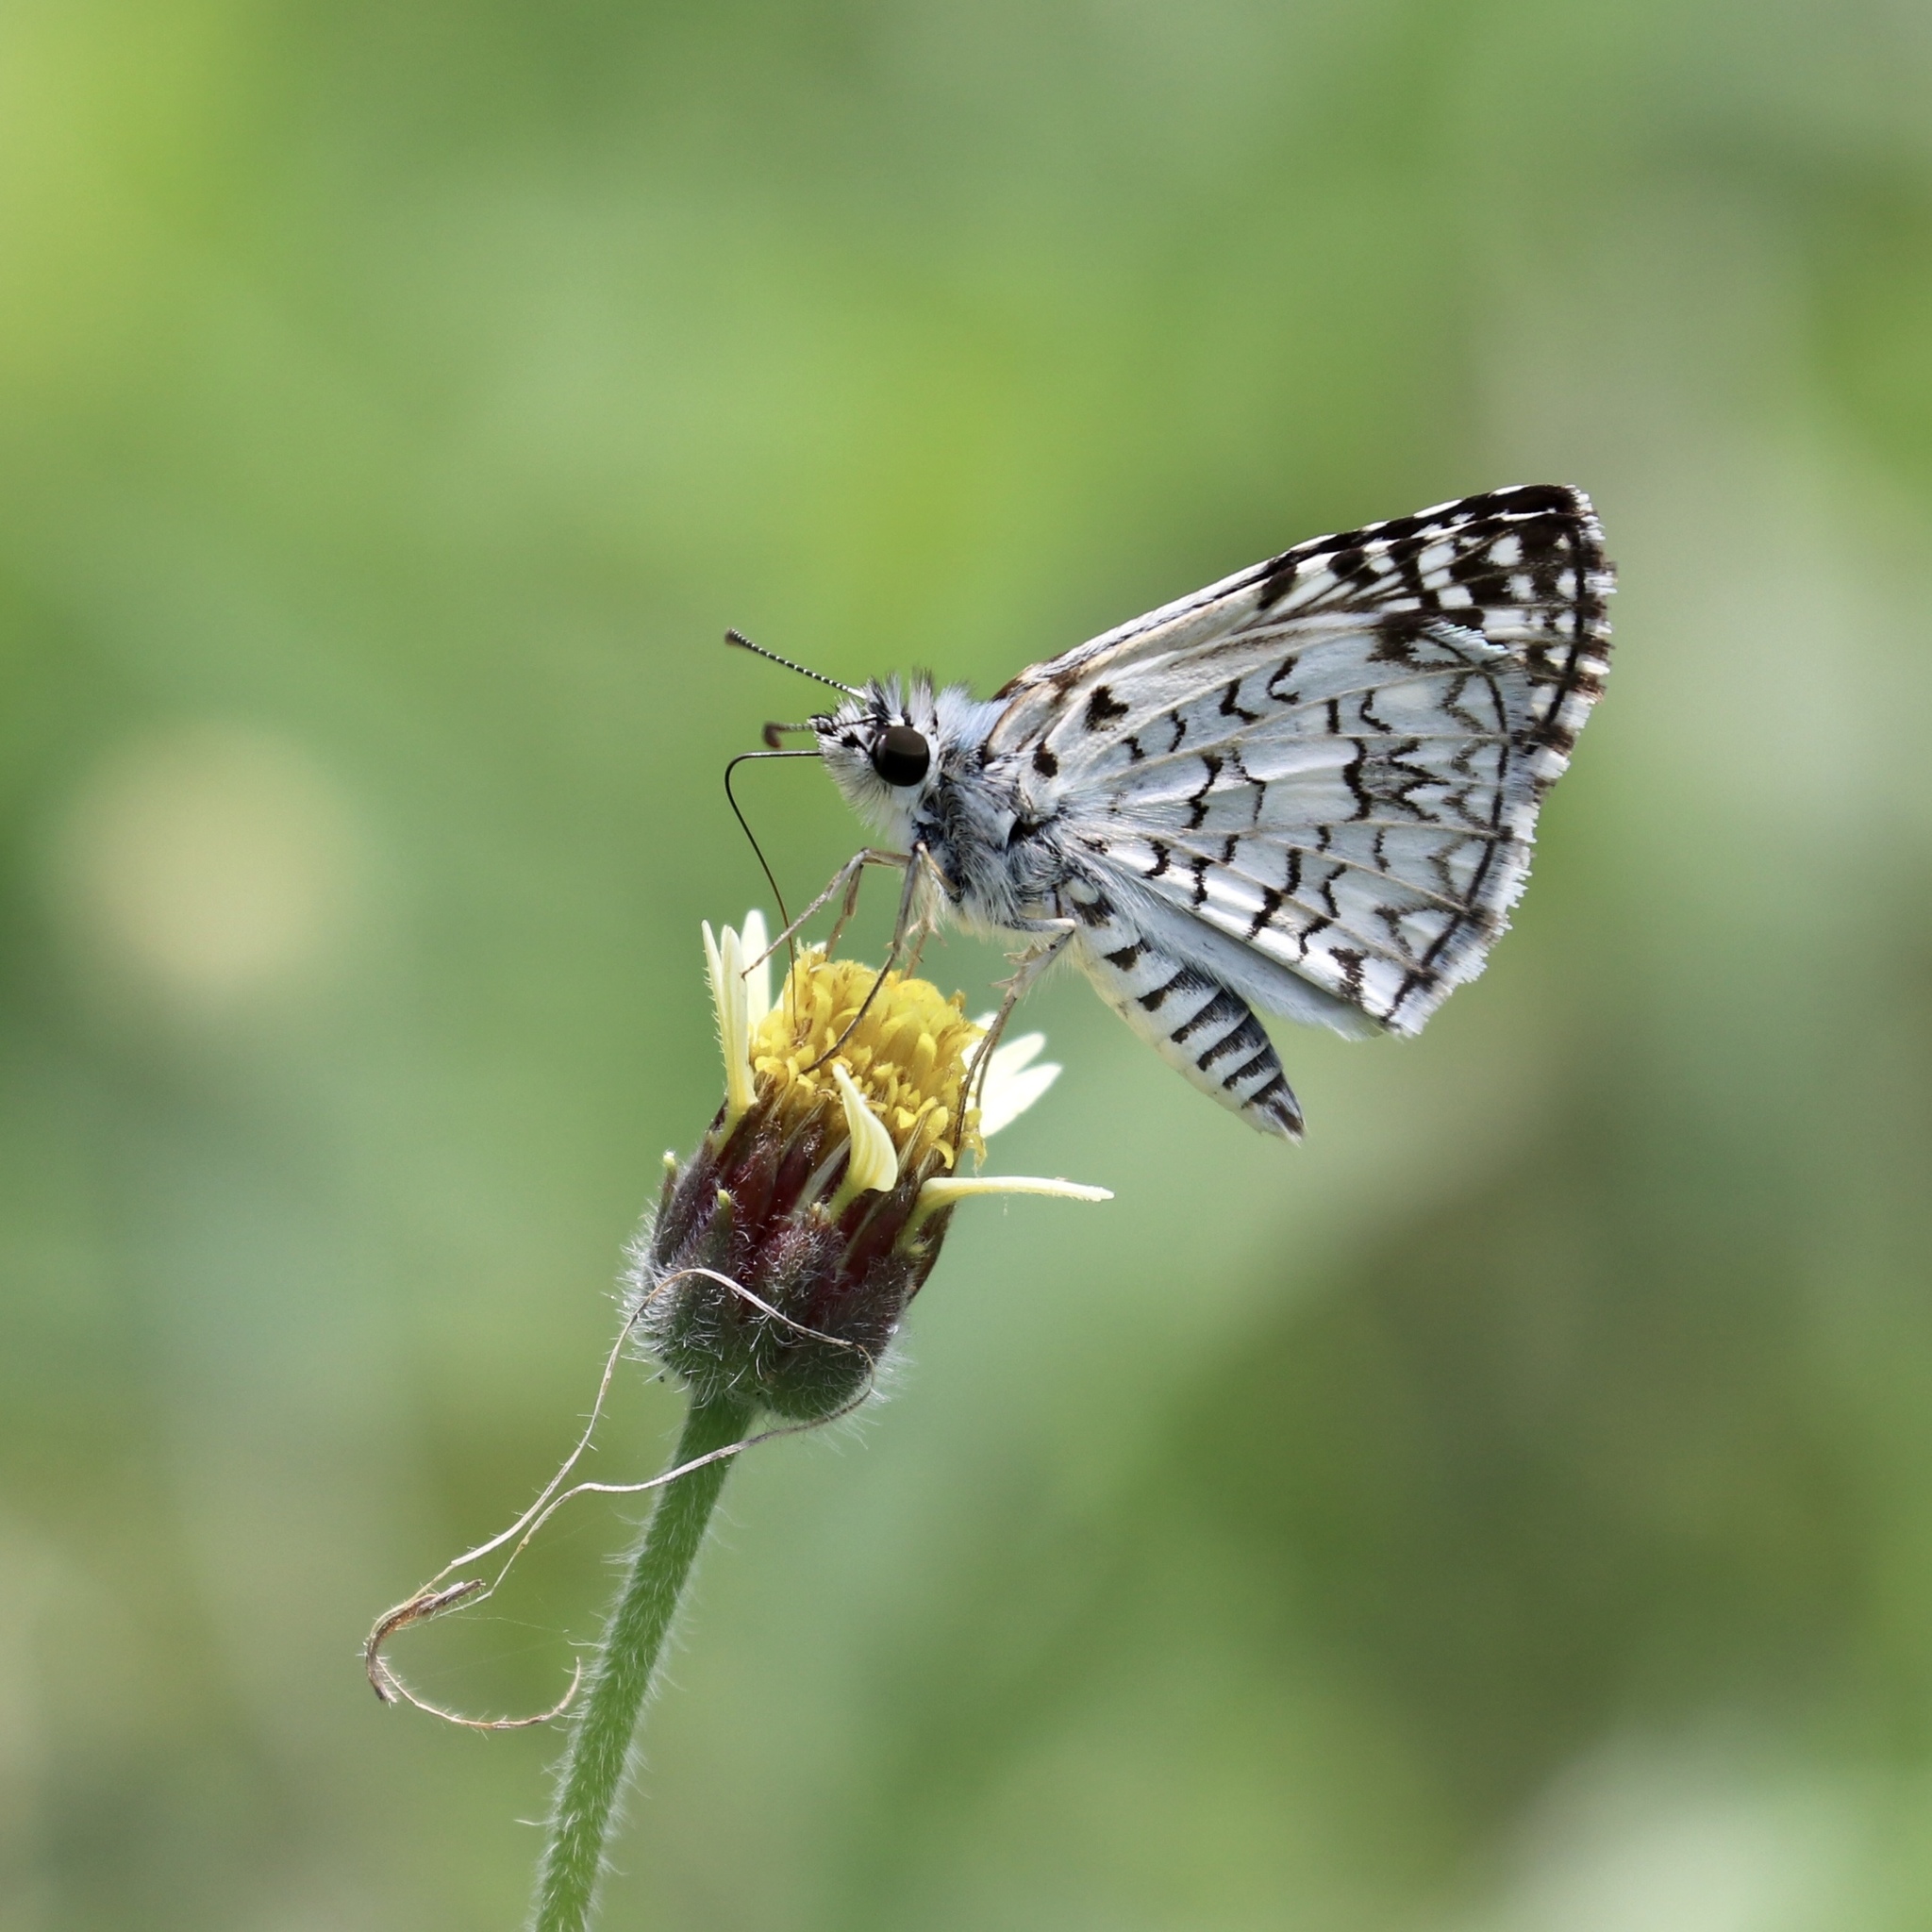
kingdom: Animalia
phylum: Arthropoda
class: Insecta
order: Lepidoptera
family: Hesperiidae
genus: Pyrgus
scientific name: Pyrgus oileus
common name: Tropical checkered-skipper
